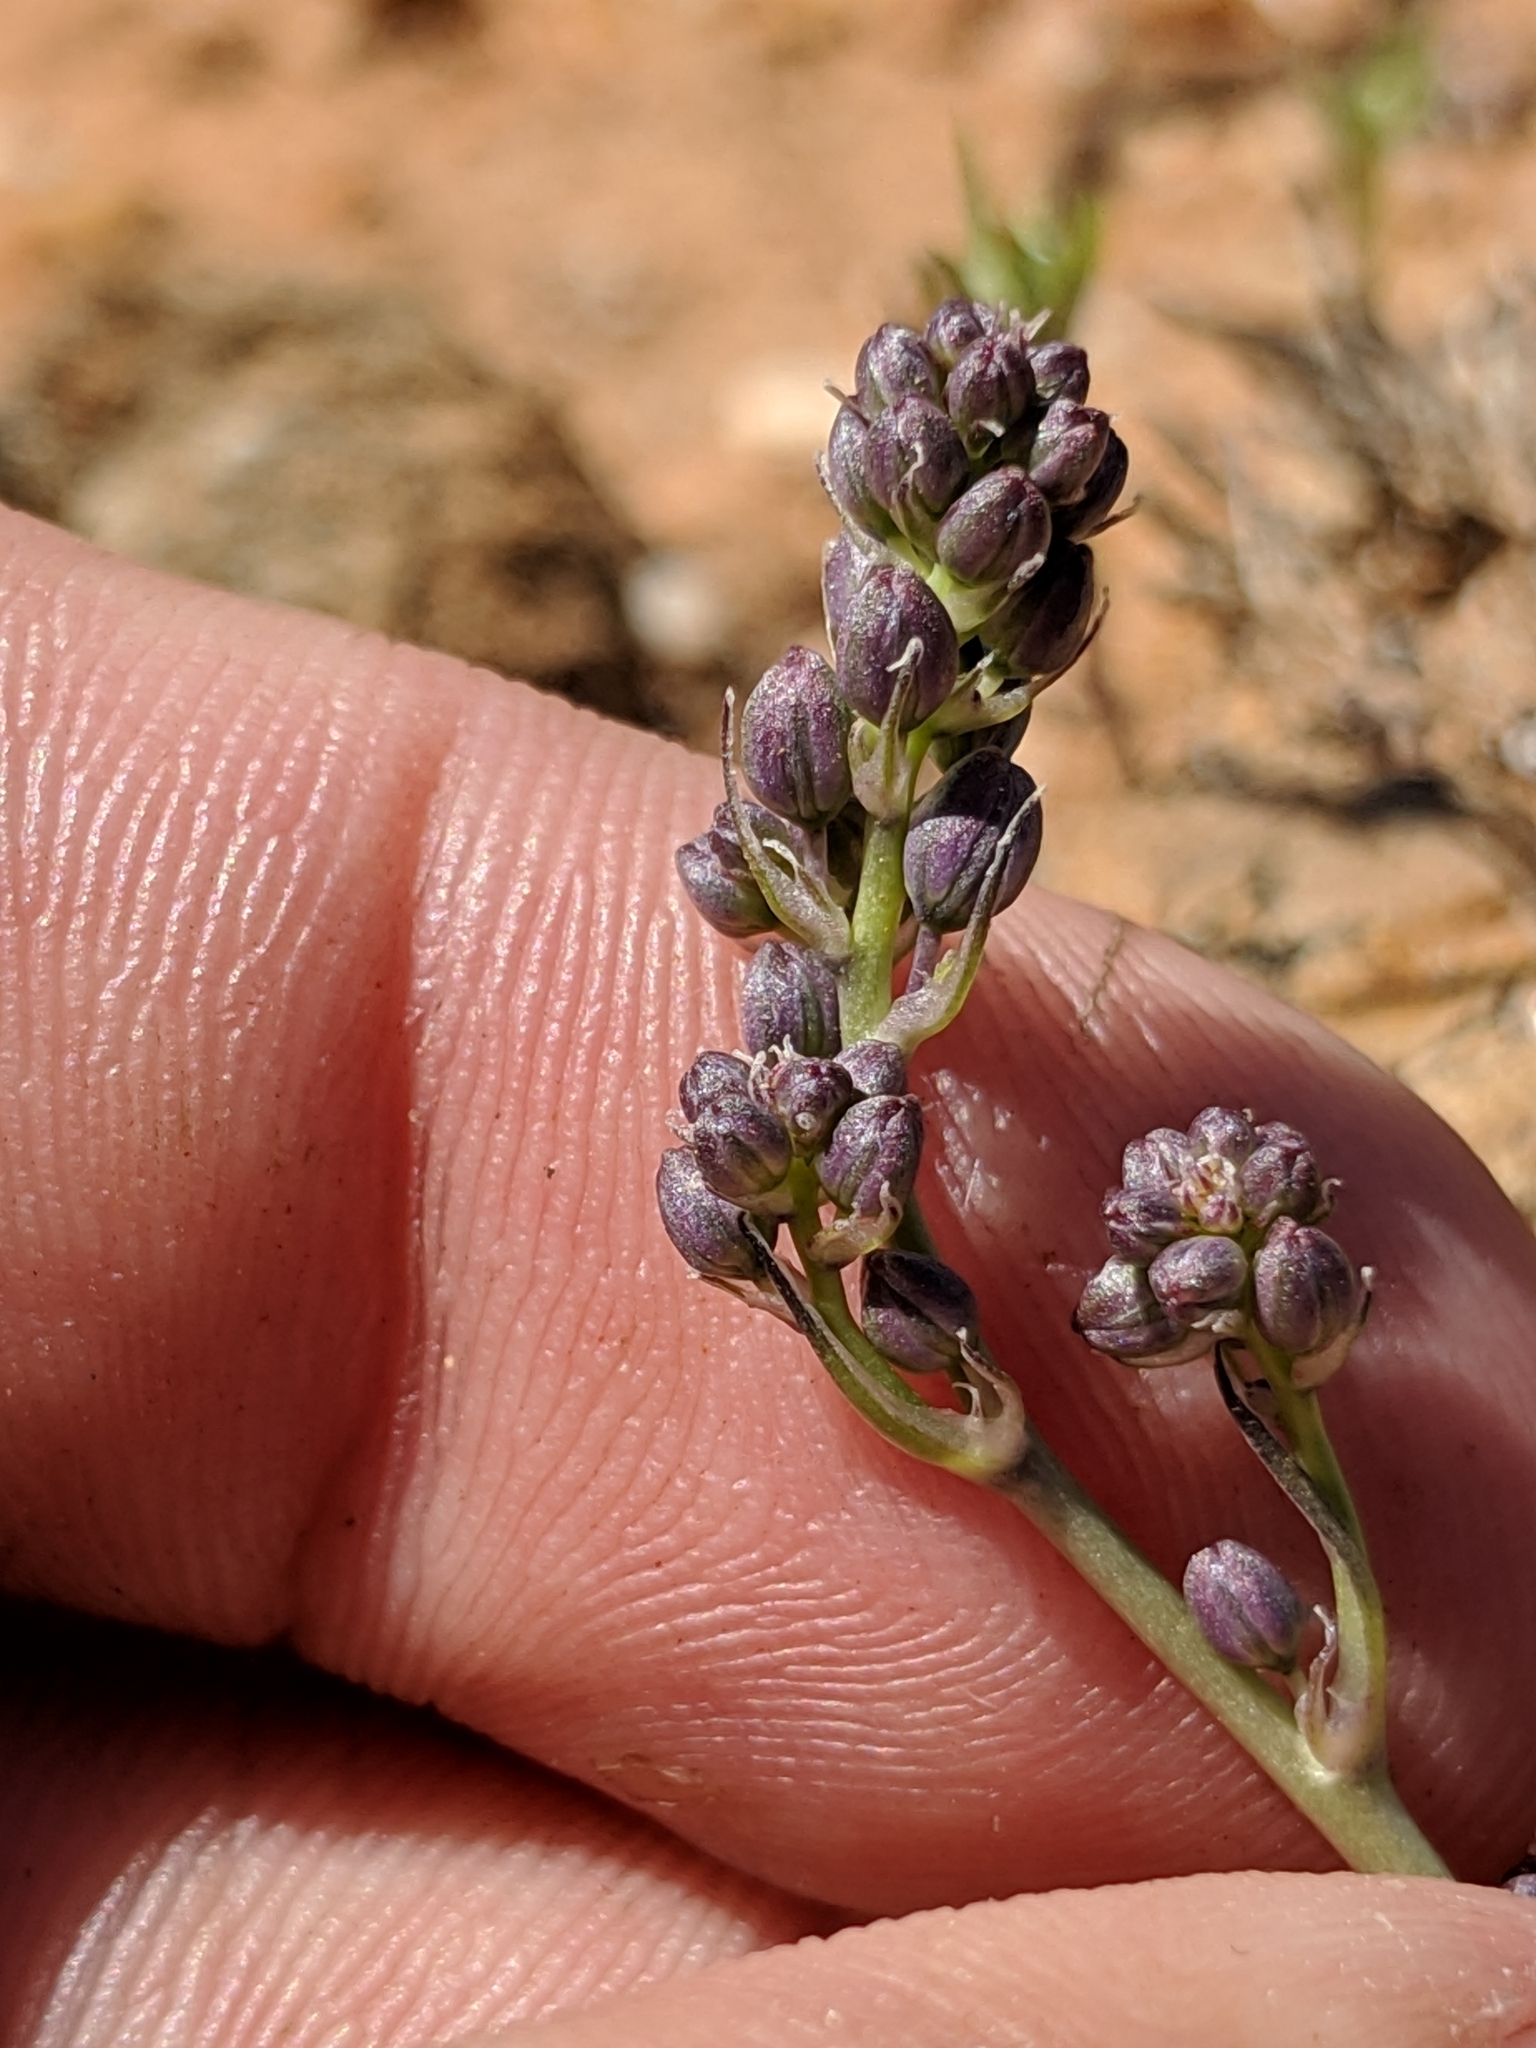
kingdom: Plantae
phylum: Tracheophyta
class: Liliopsida
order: Asparagales
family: Asparagaceae
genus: Hooveria
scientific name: Hooveria purpurea
